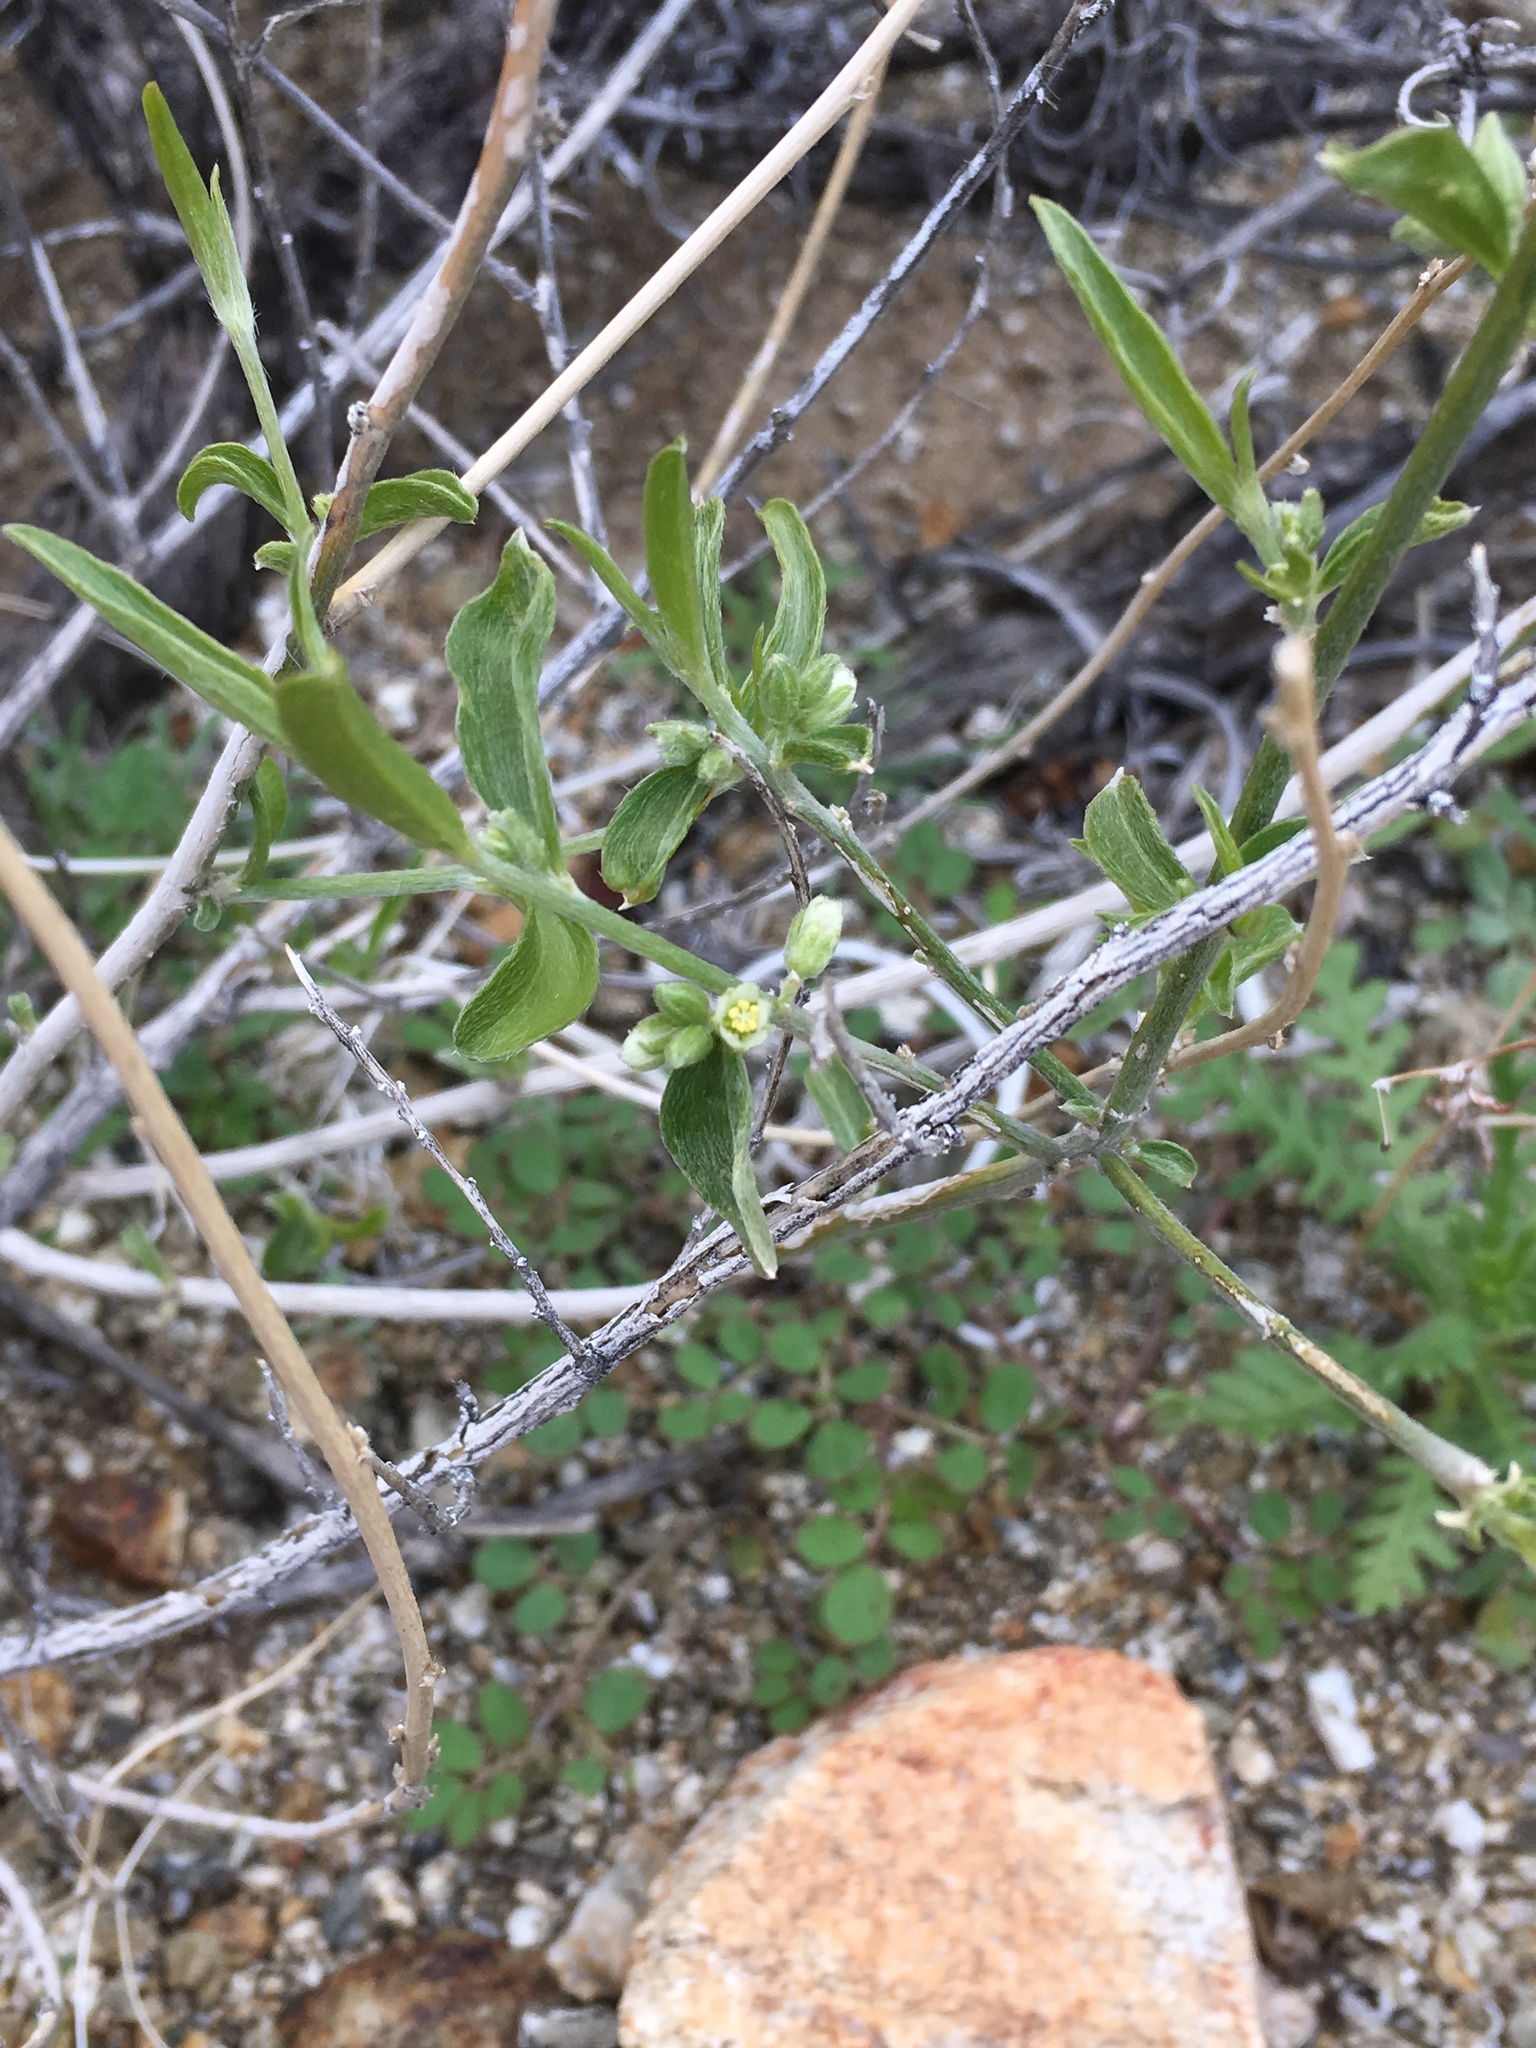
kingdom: Plantae
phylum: Tracheophyta
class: Magnoliopsida
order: Malpighiales
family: Euphorbiaceae
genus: Ditaxis
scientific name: Ditaxis lanceolata
